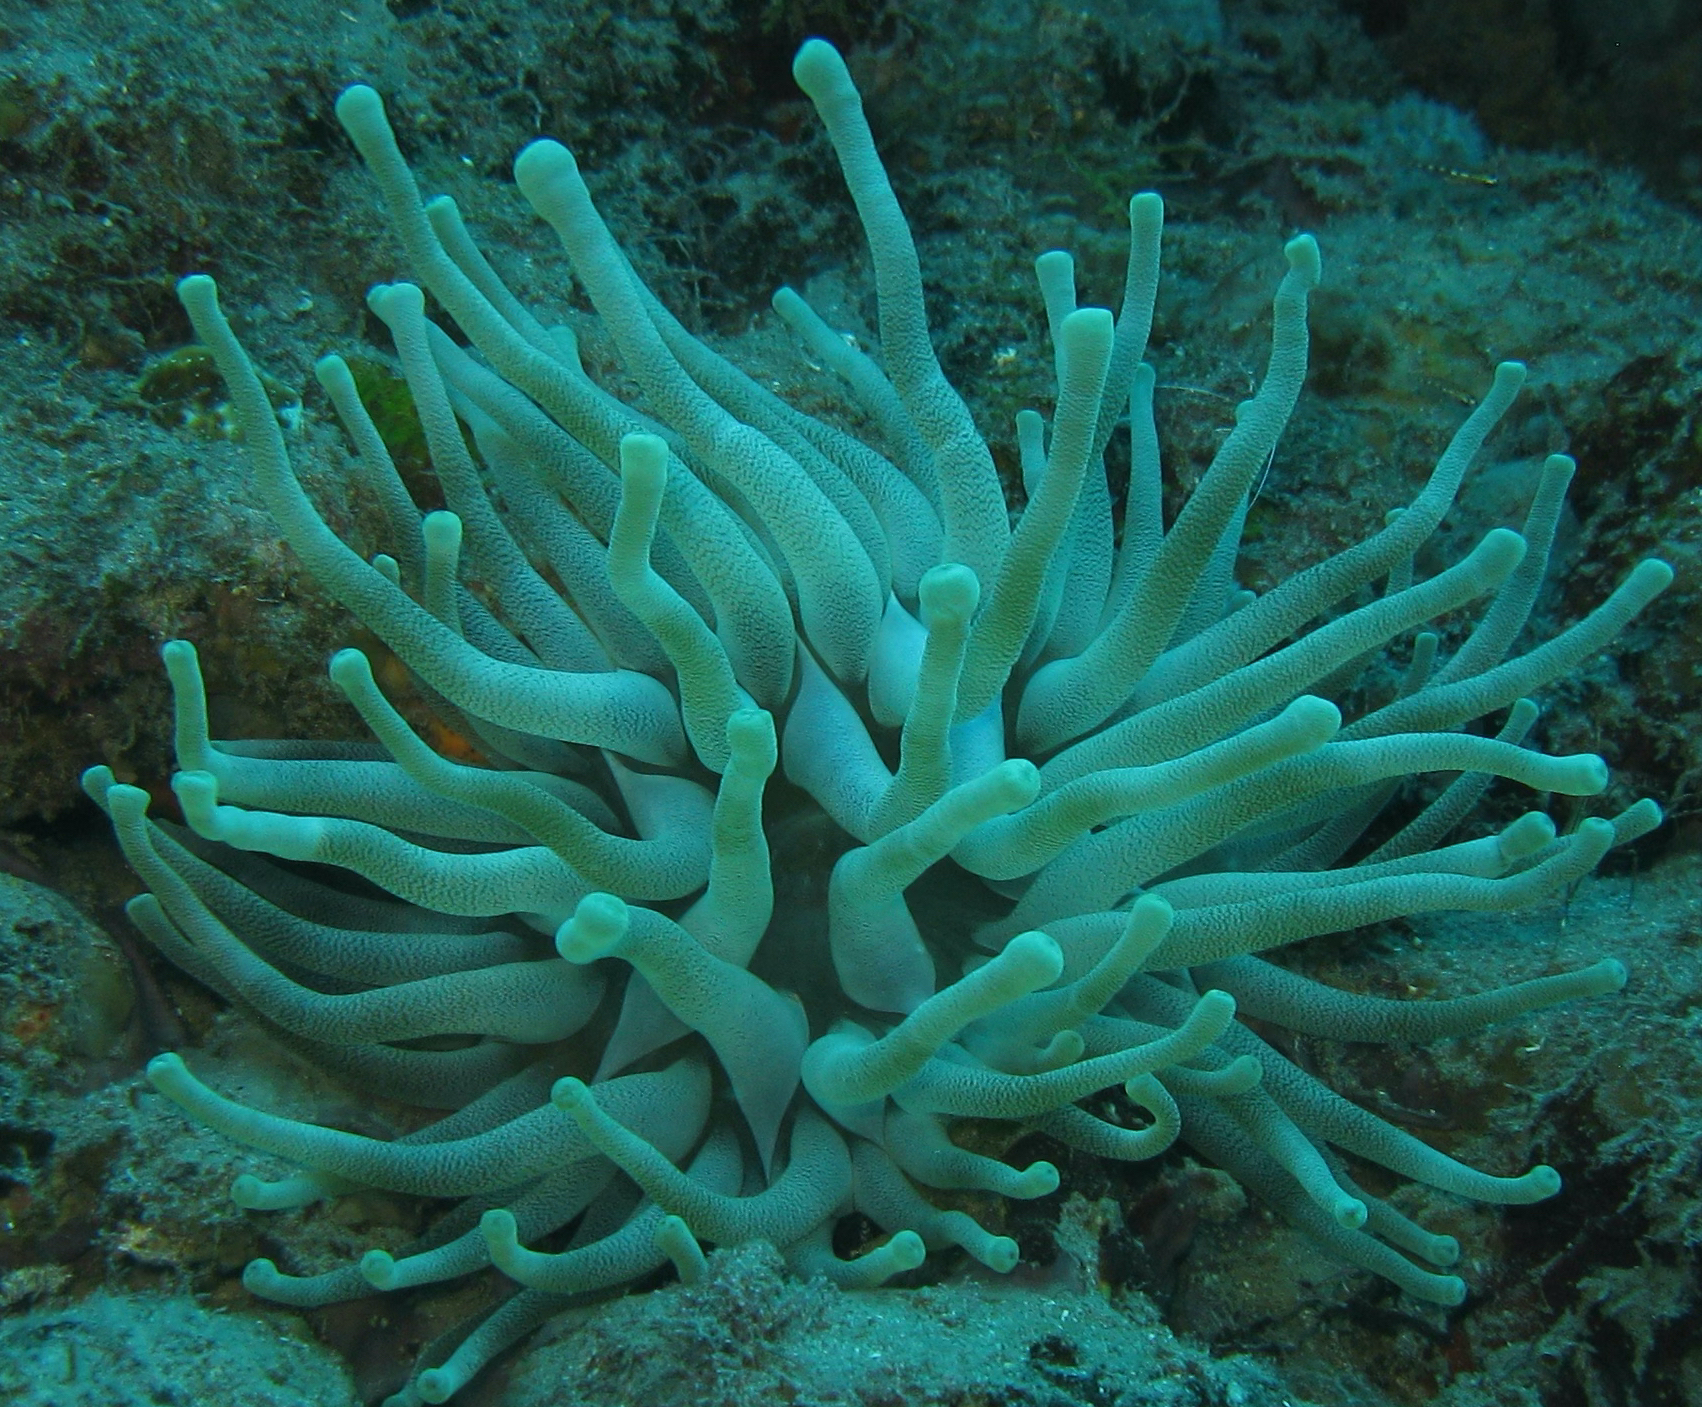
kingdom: Animalia
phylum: Cnidaria
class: Anthozoa
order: Actiniaria
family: Actiniidae
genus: Condylactis
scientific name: Condylactis gigantea
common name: Giant caribbean anemone
